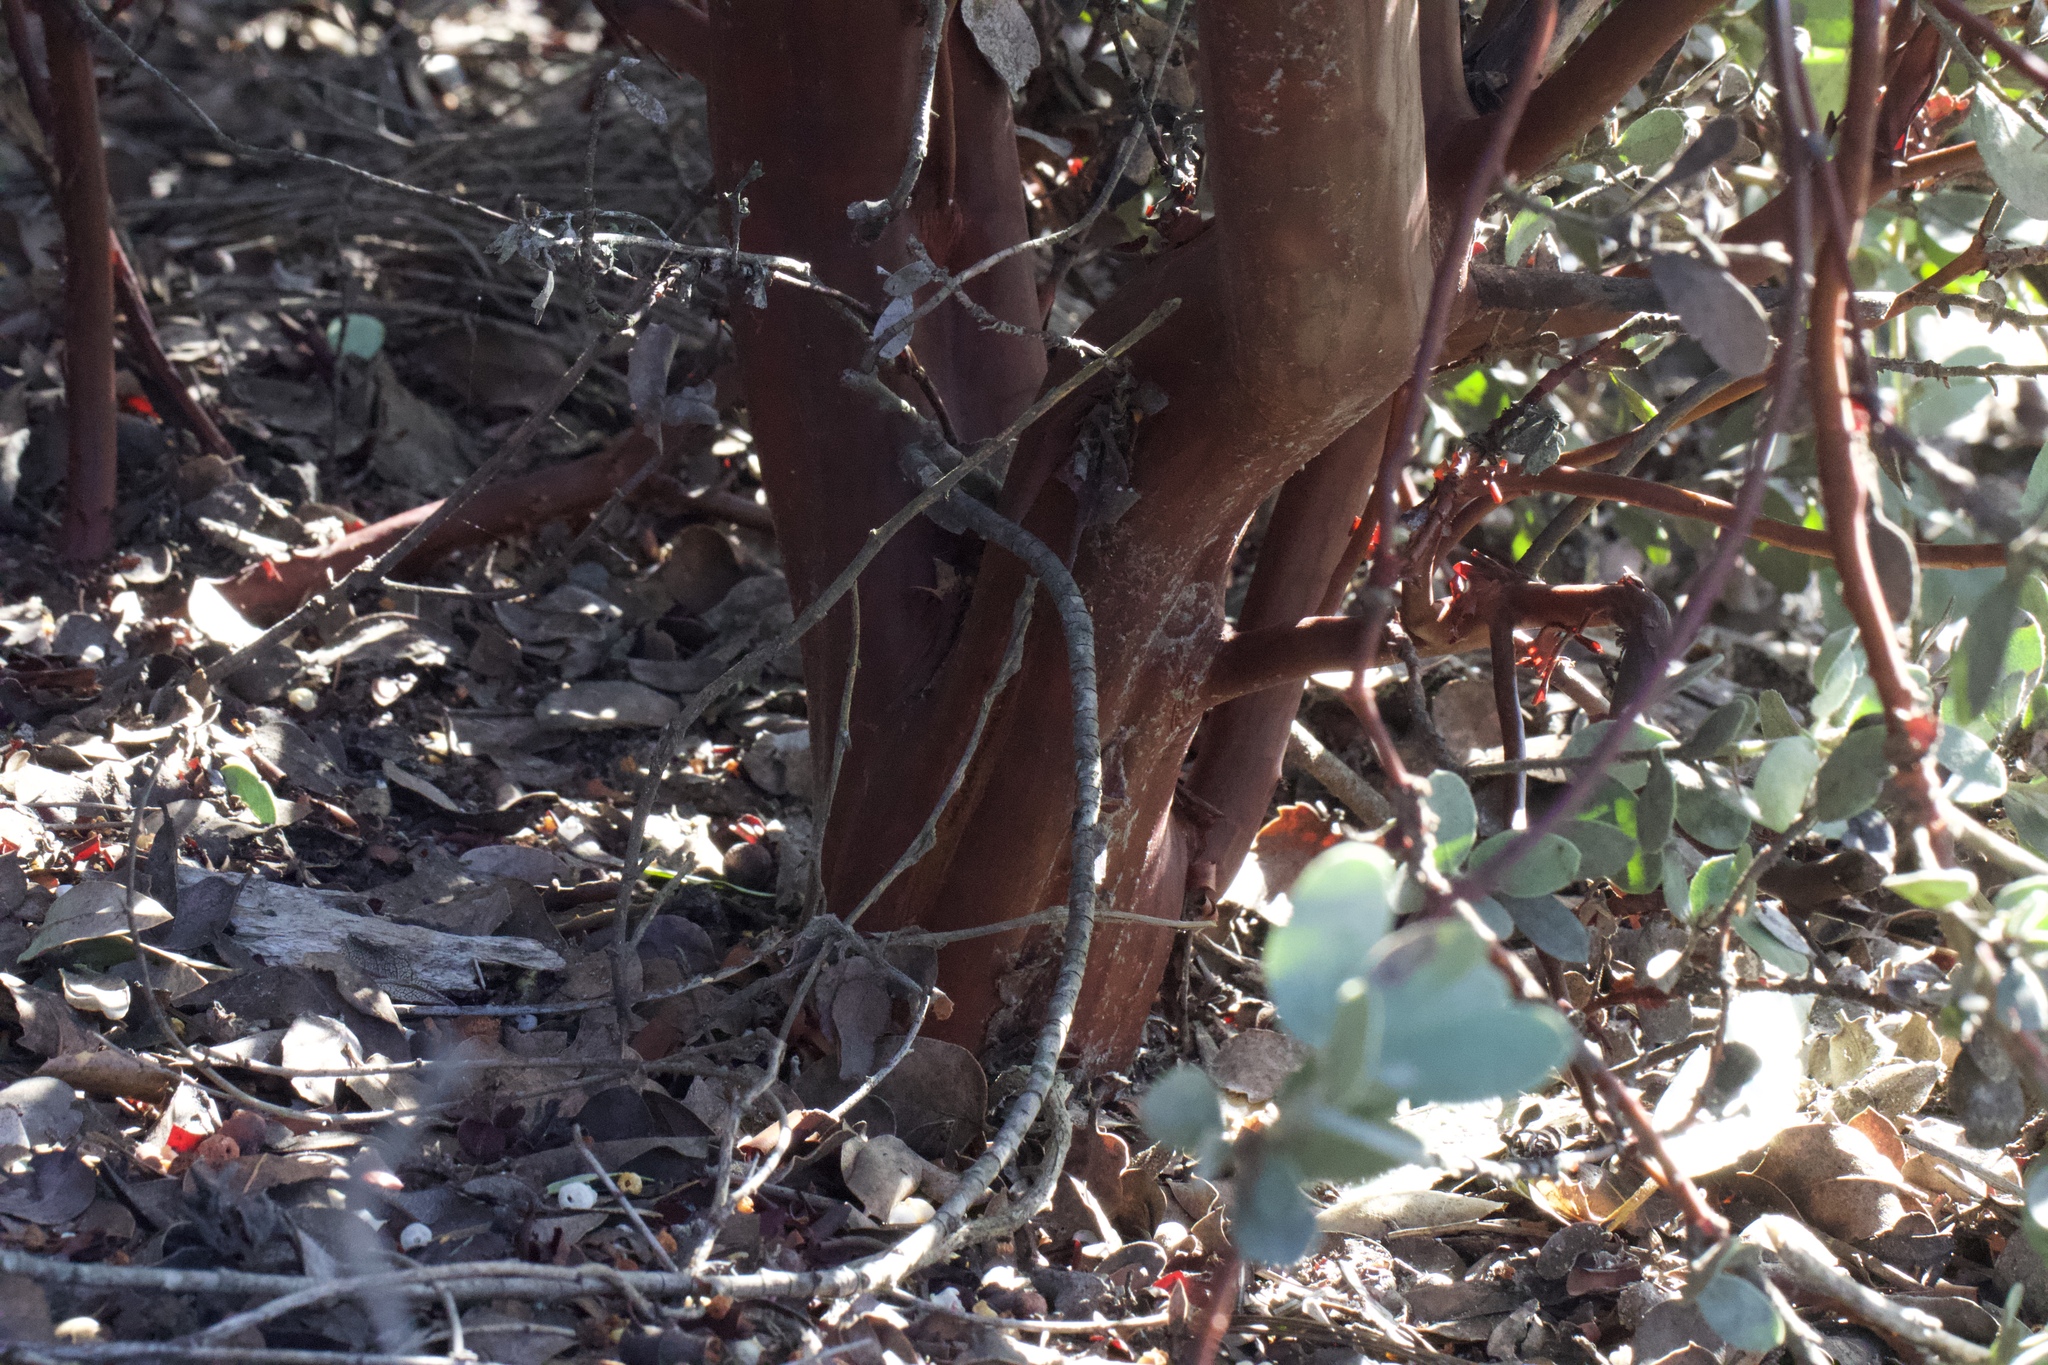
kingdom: Plantae
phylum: Tracheophyta
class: Magnoliopsida
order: Ericales
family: Ericaceae
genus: Arctostaphylos
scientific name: Arctostaphylos silvicola
